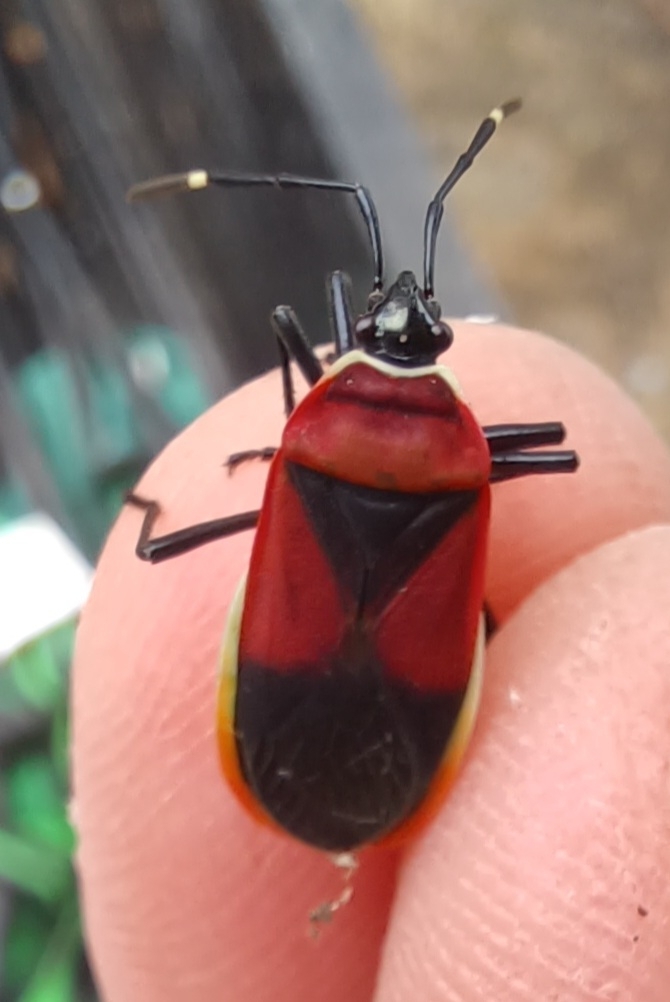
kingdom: Animalia
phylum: Arthropoda
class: Insecta
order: Hemiptera
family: Pyrrhocoridae
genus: Dindymus
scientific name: Dindymus
